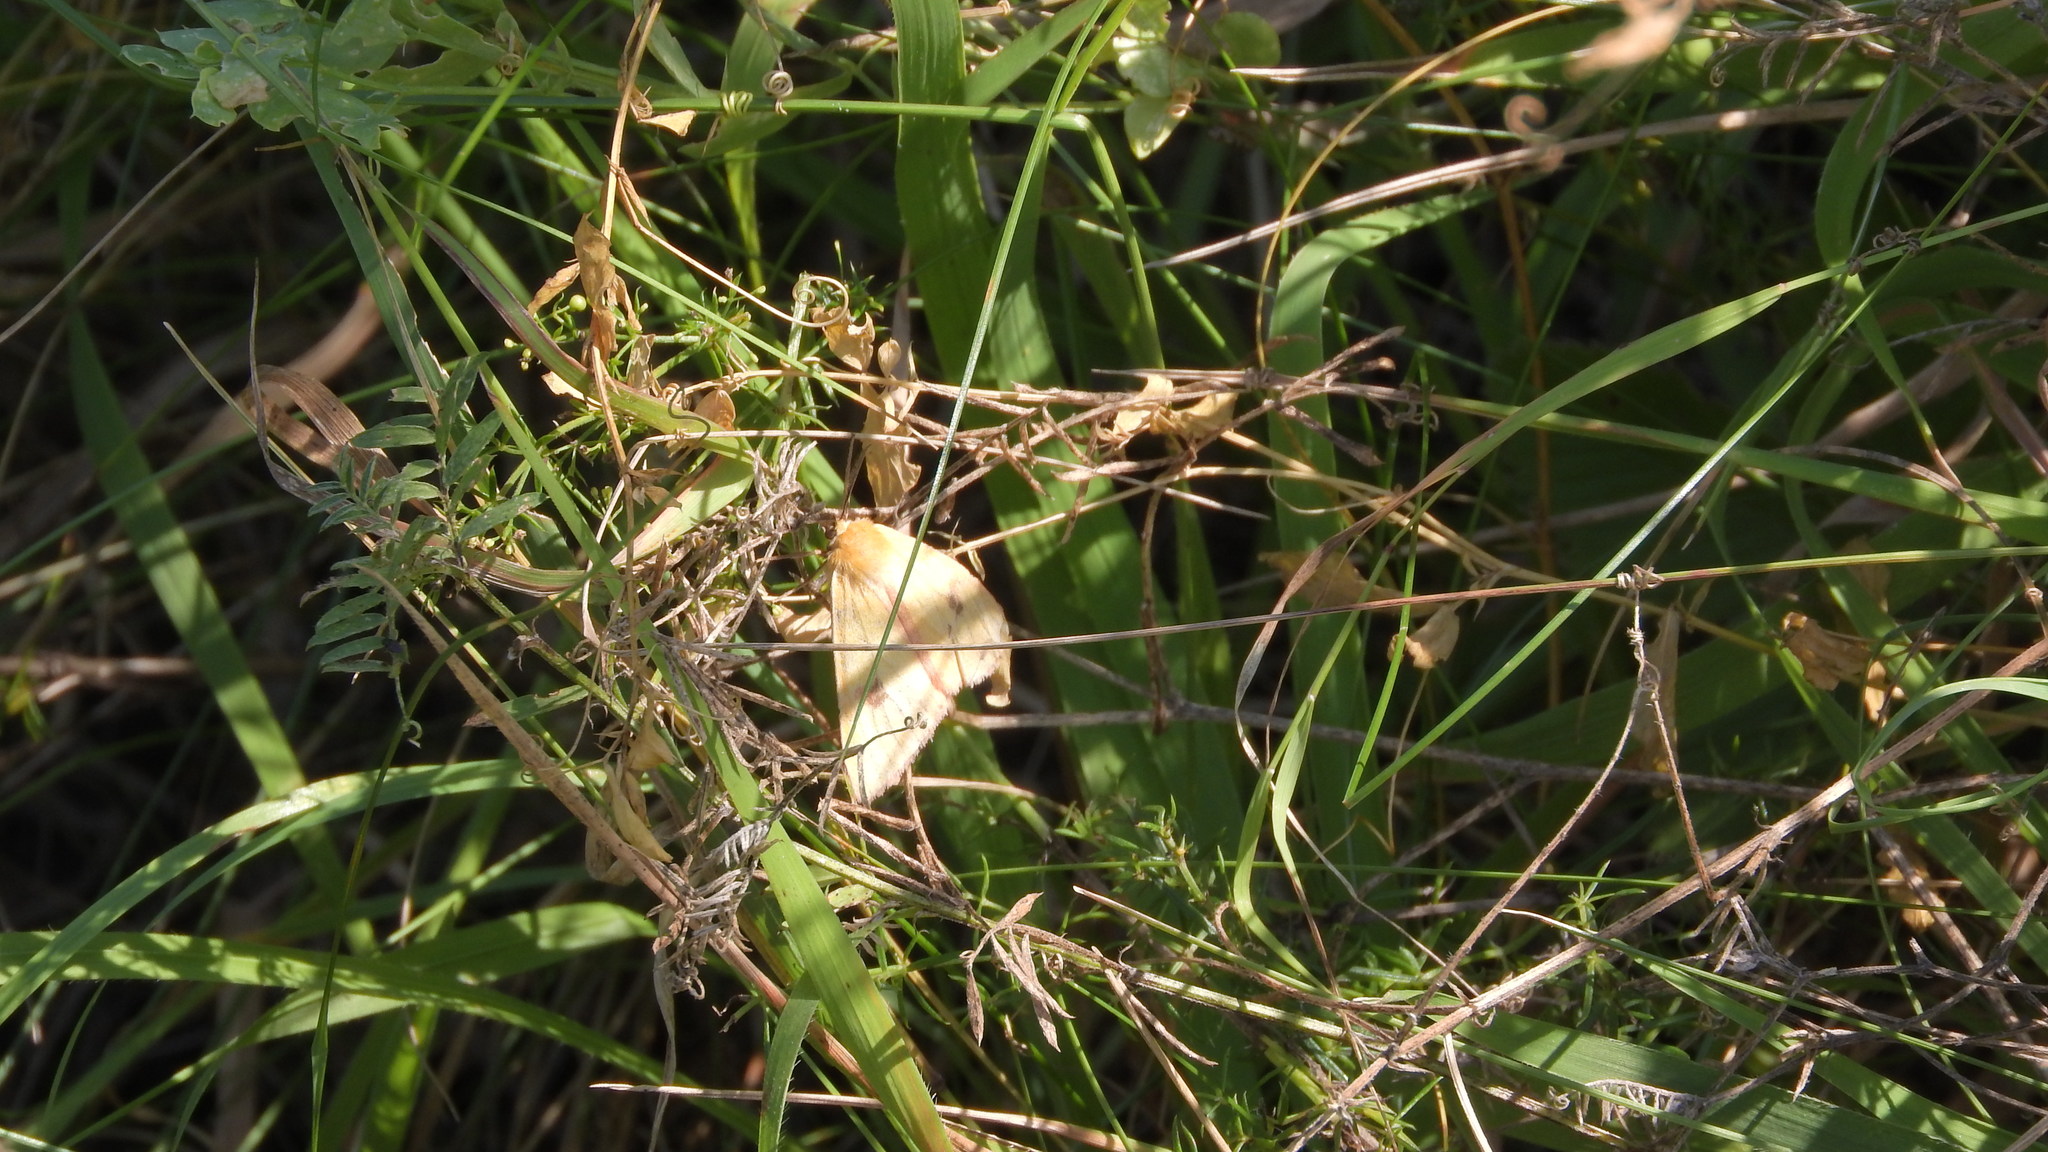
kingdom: Animalia
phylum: Arthropoda
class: Insecta
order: Lepidoptera
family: Erebidae
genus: Diacrisia
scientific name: Diacrisia sannio
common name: Clouded buff
